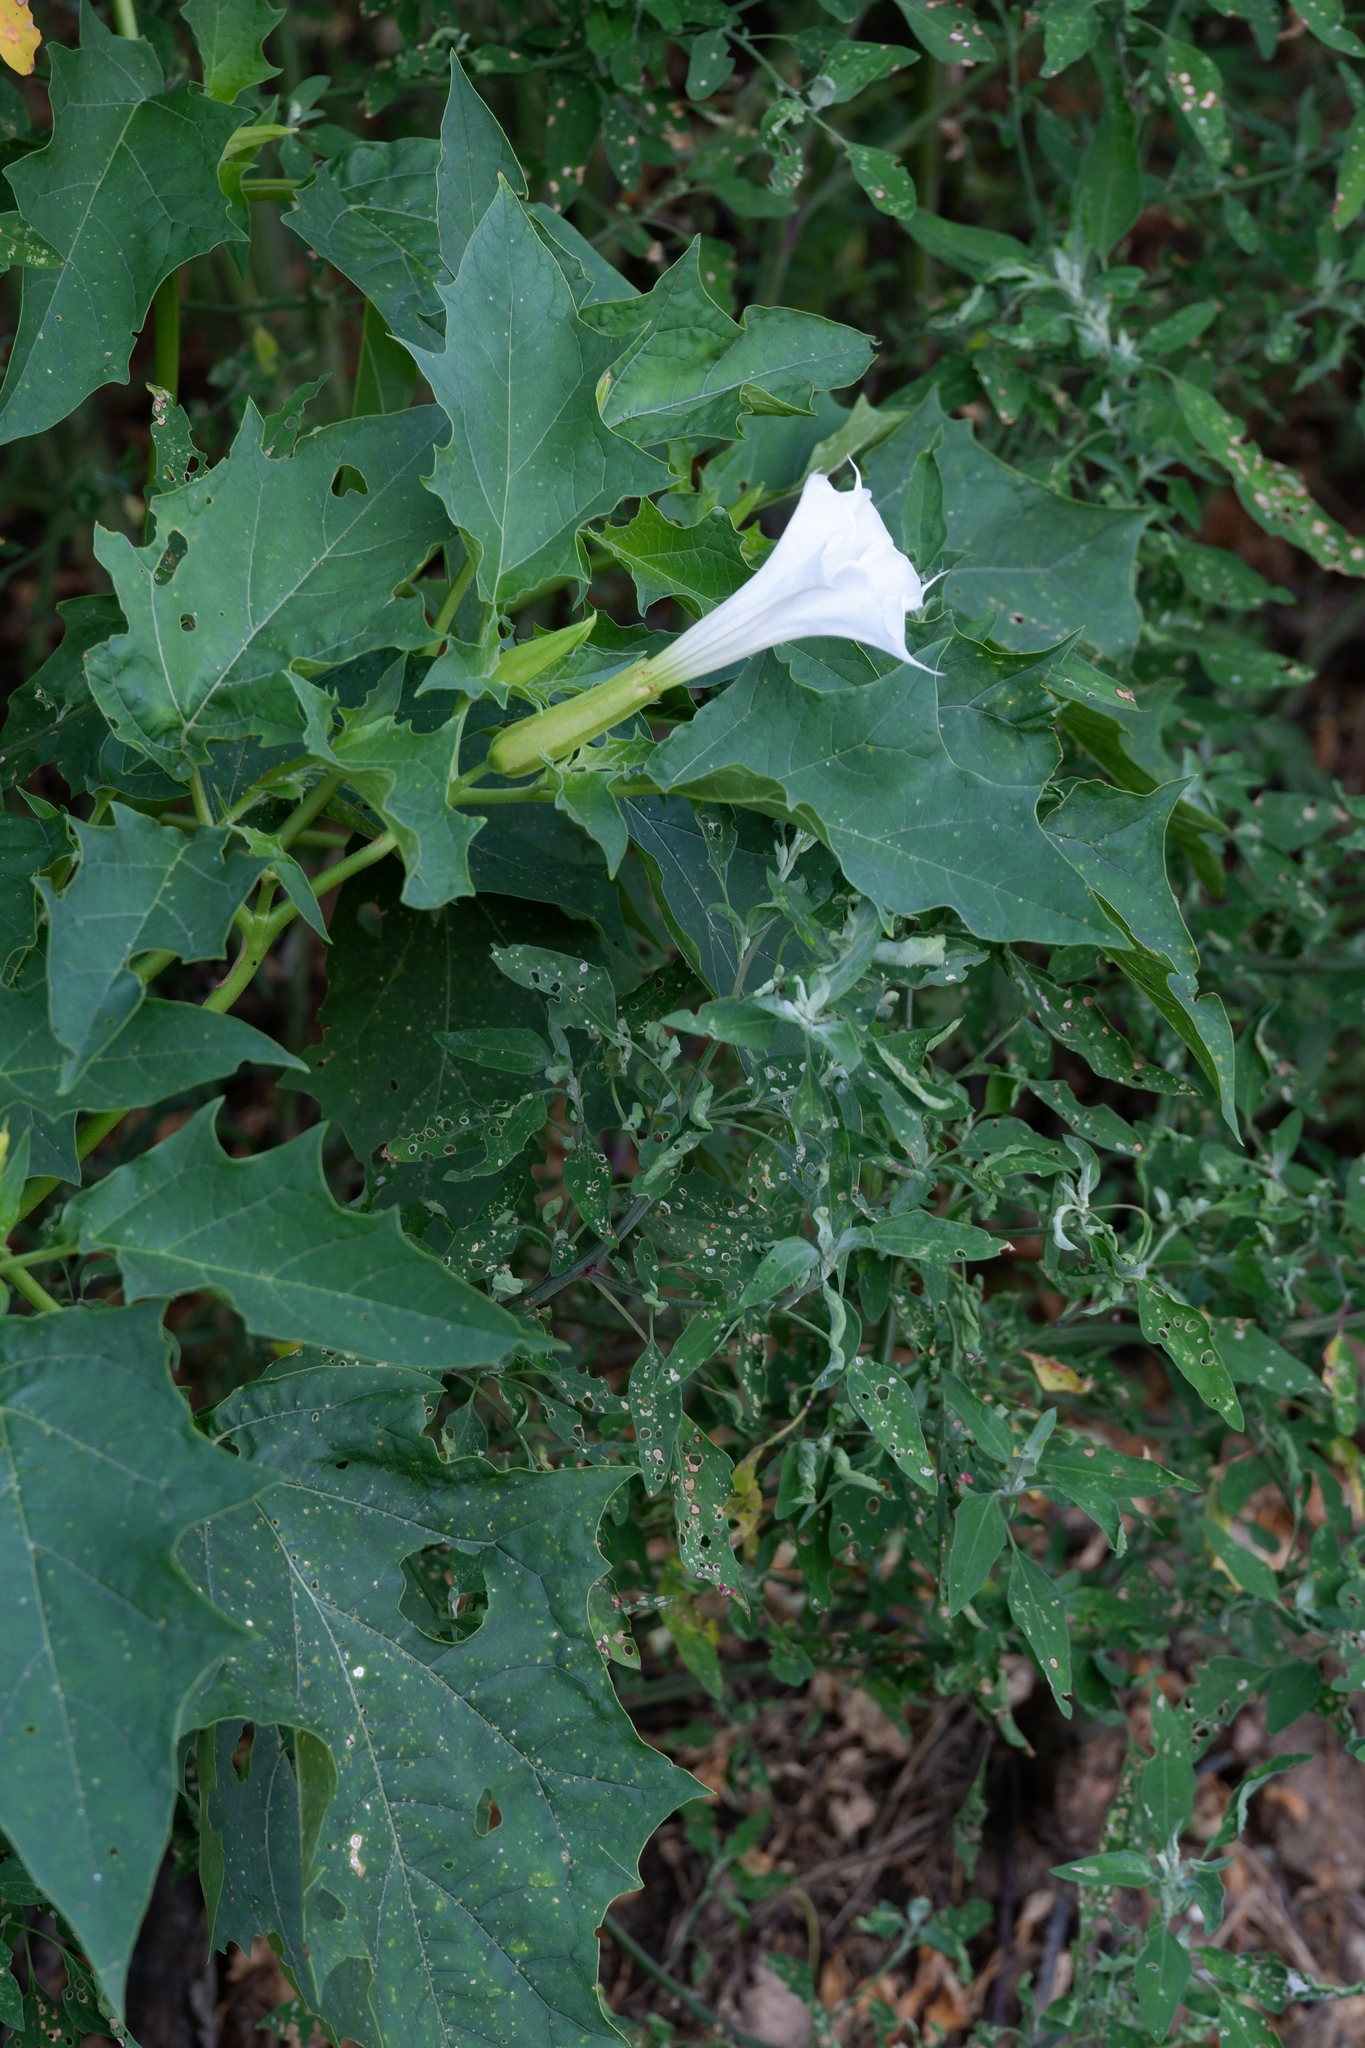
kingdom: Plantae
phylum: Tracheophyta
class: Magnoliopsida
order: Solanales
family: Solanaceae
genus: Datura
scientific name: Datura stramonium
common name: Thorn-apple
